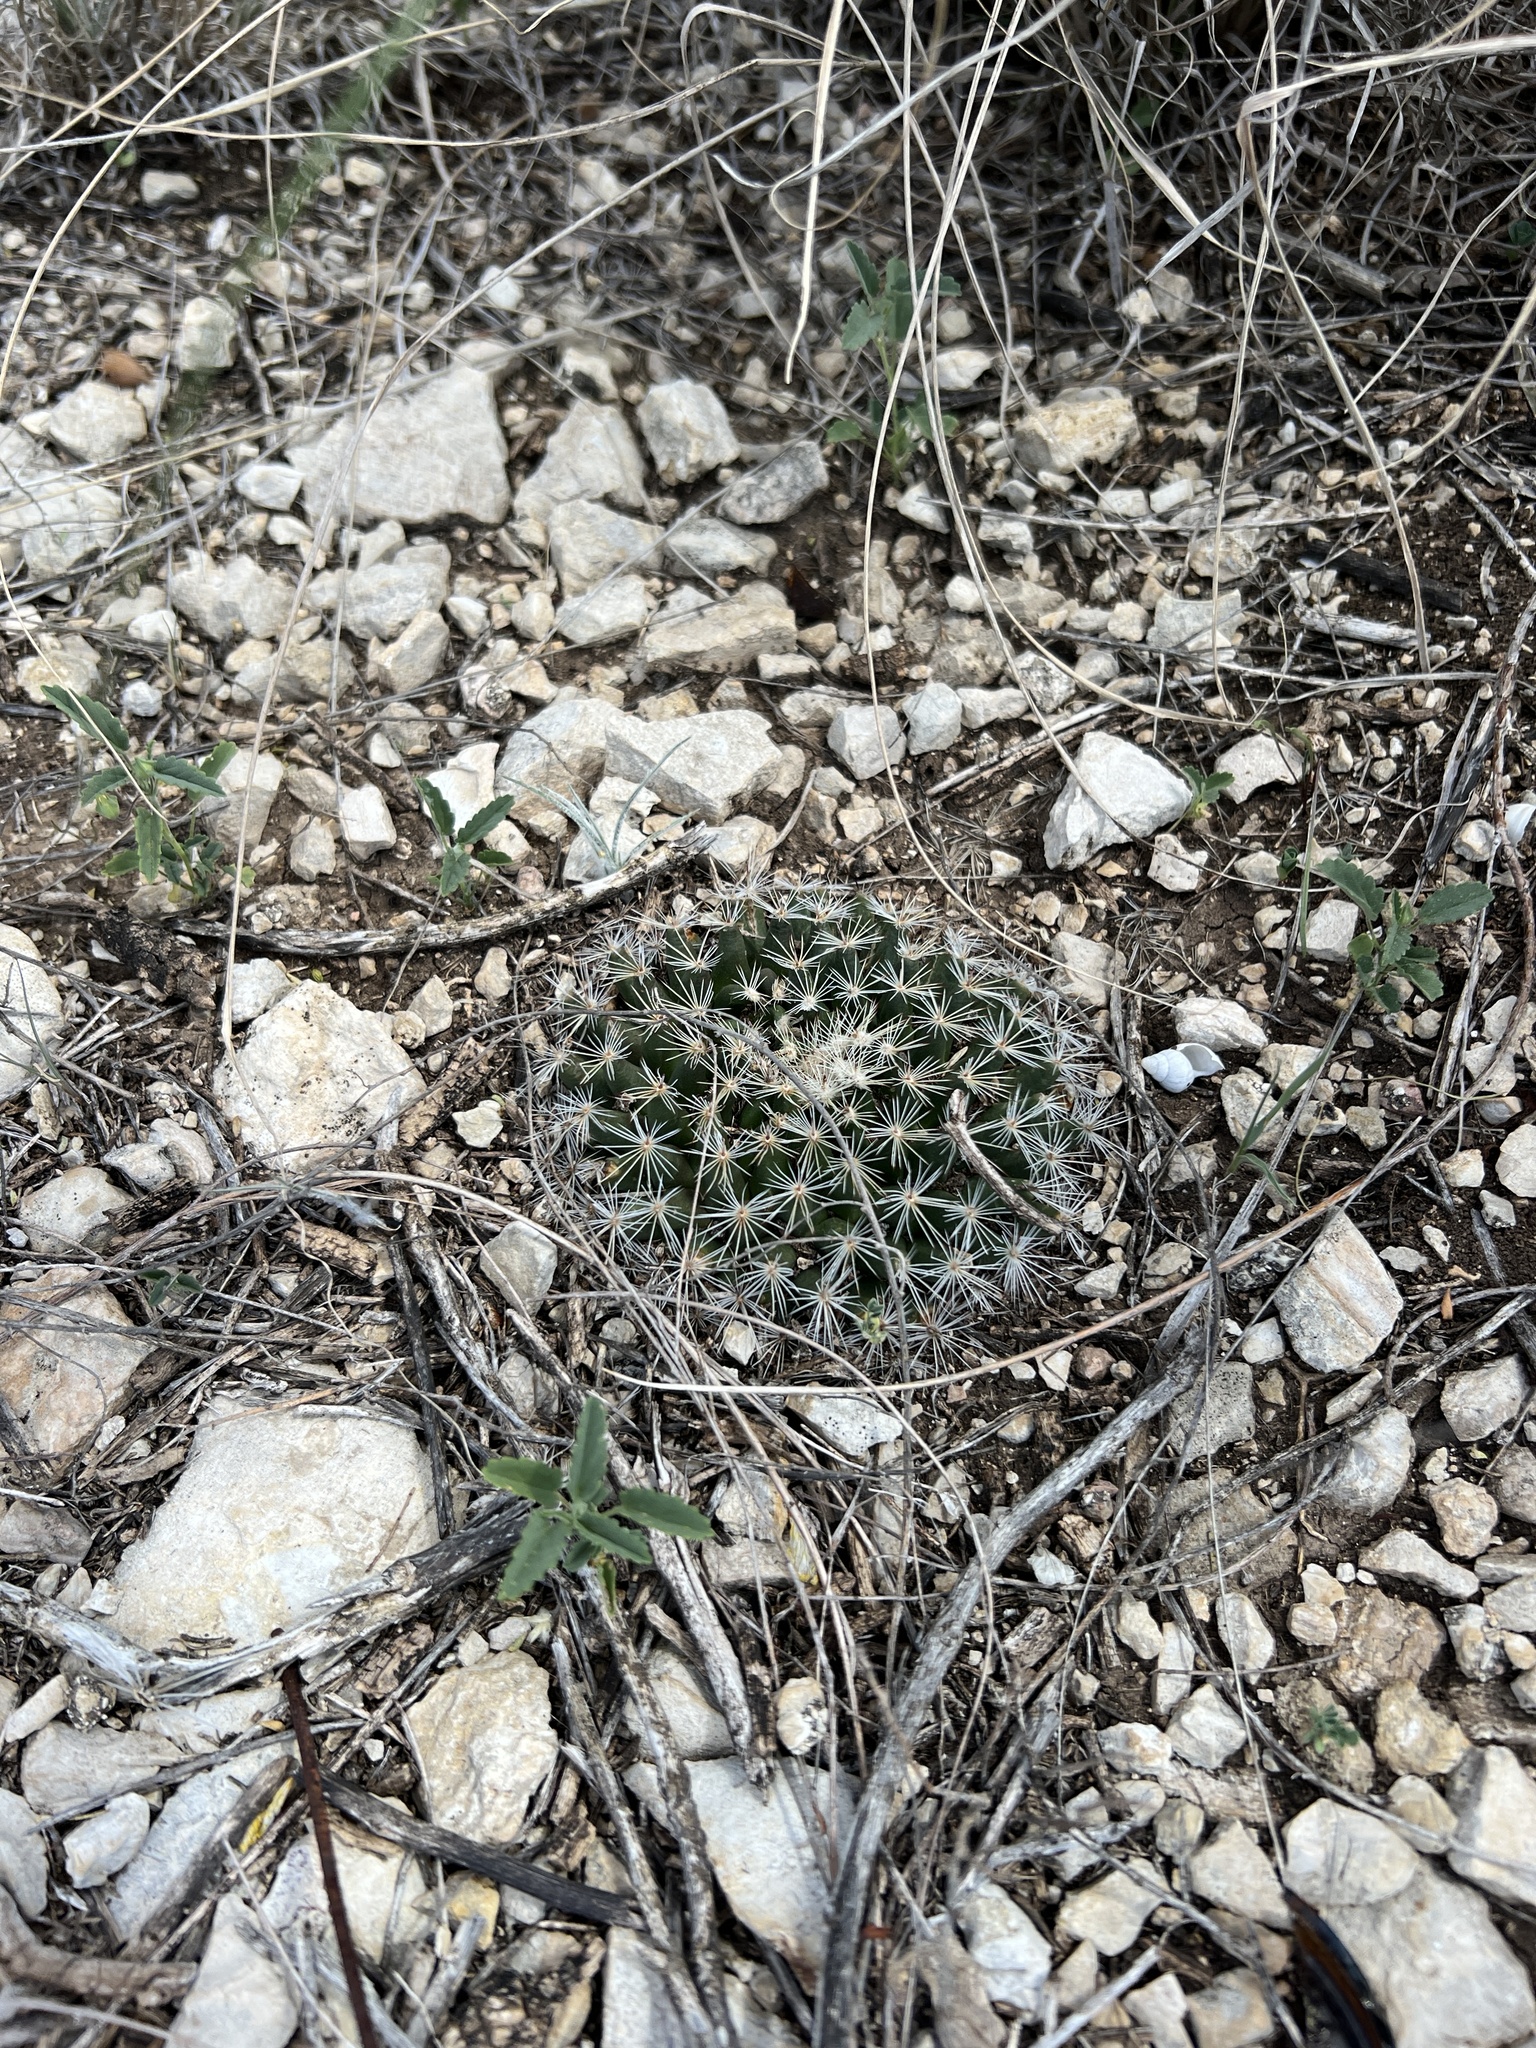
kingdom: Plantae
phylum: Tracheophyta
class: Magnoliopsida
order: Caryophyllales
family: Cactaceae
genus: Mammillaria
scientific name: Mammillaria heyderi
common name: Little nipple cactus
